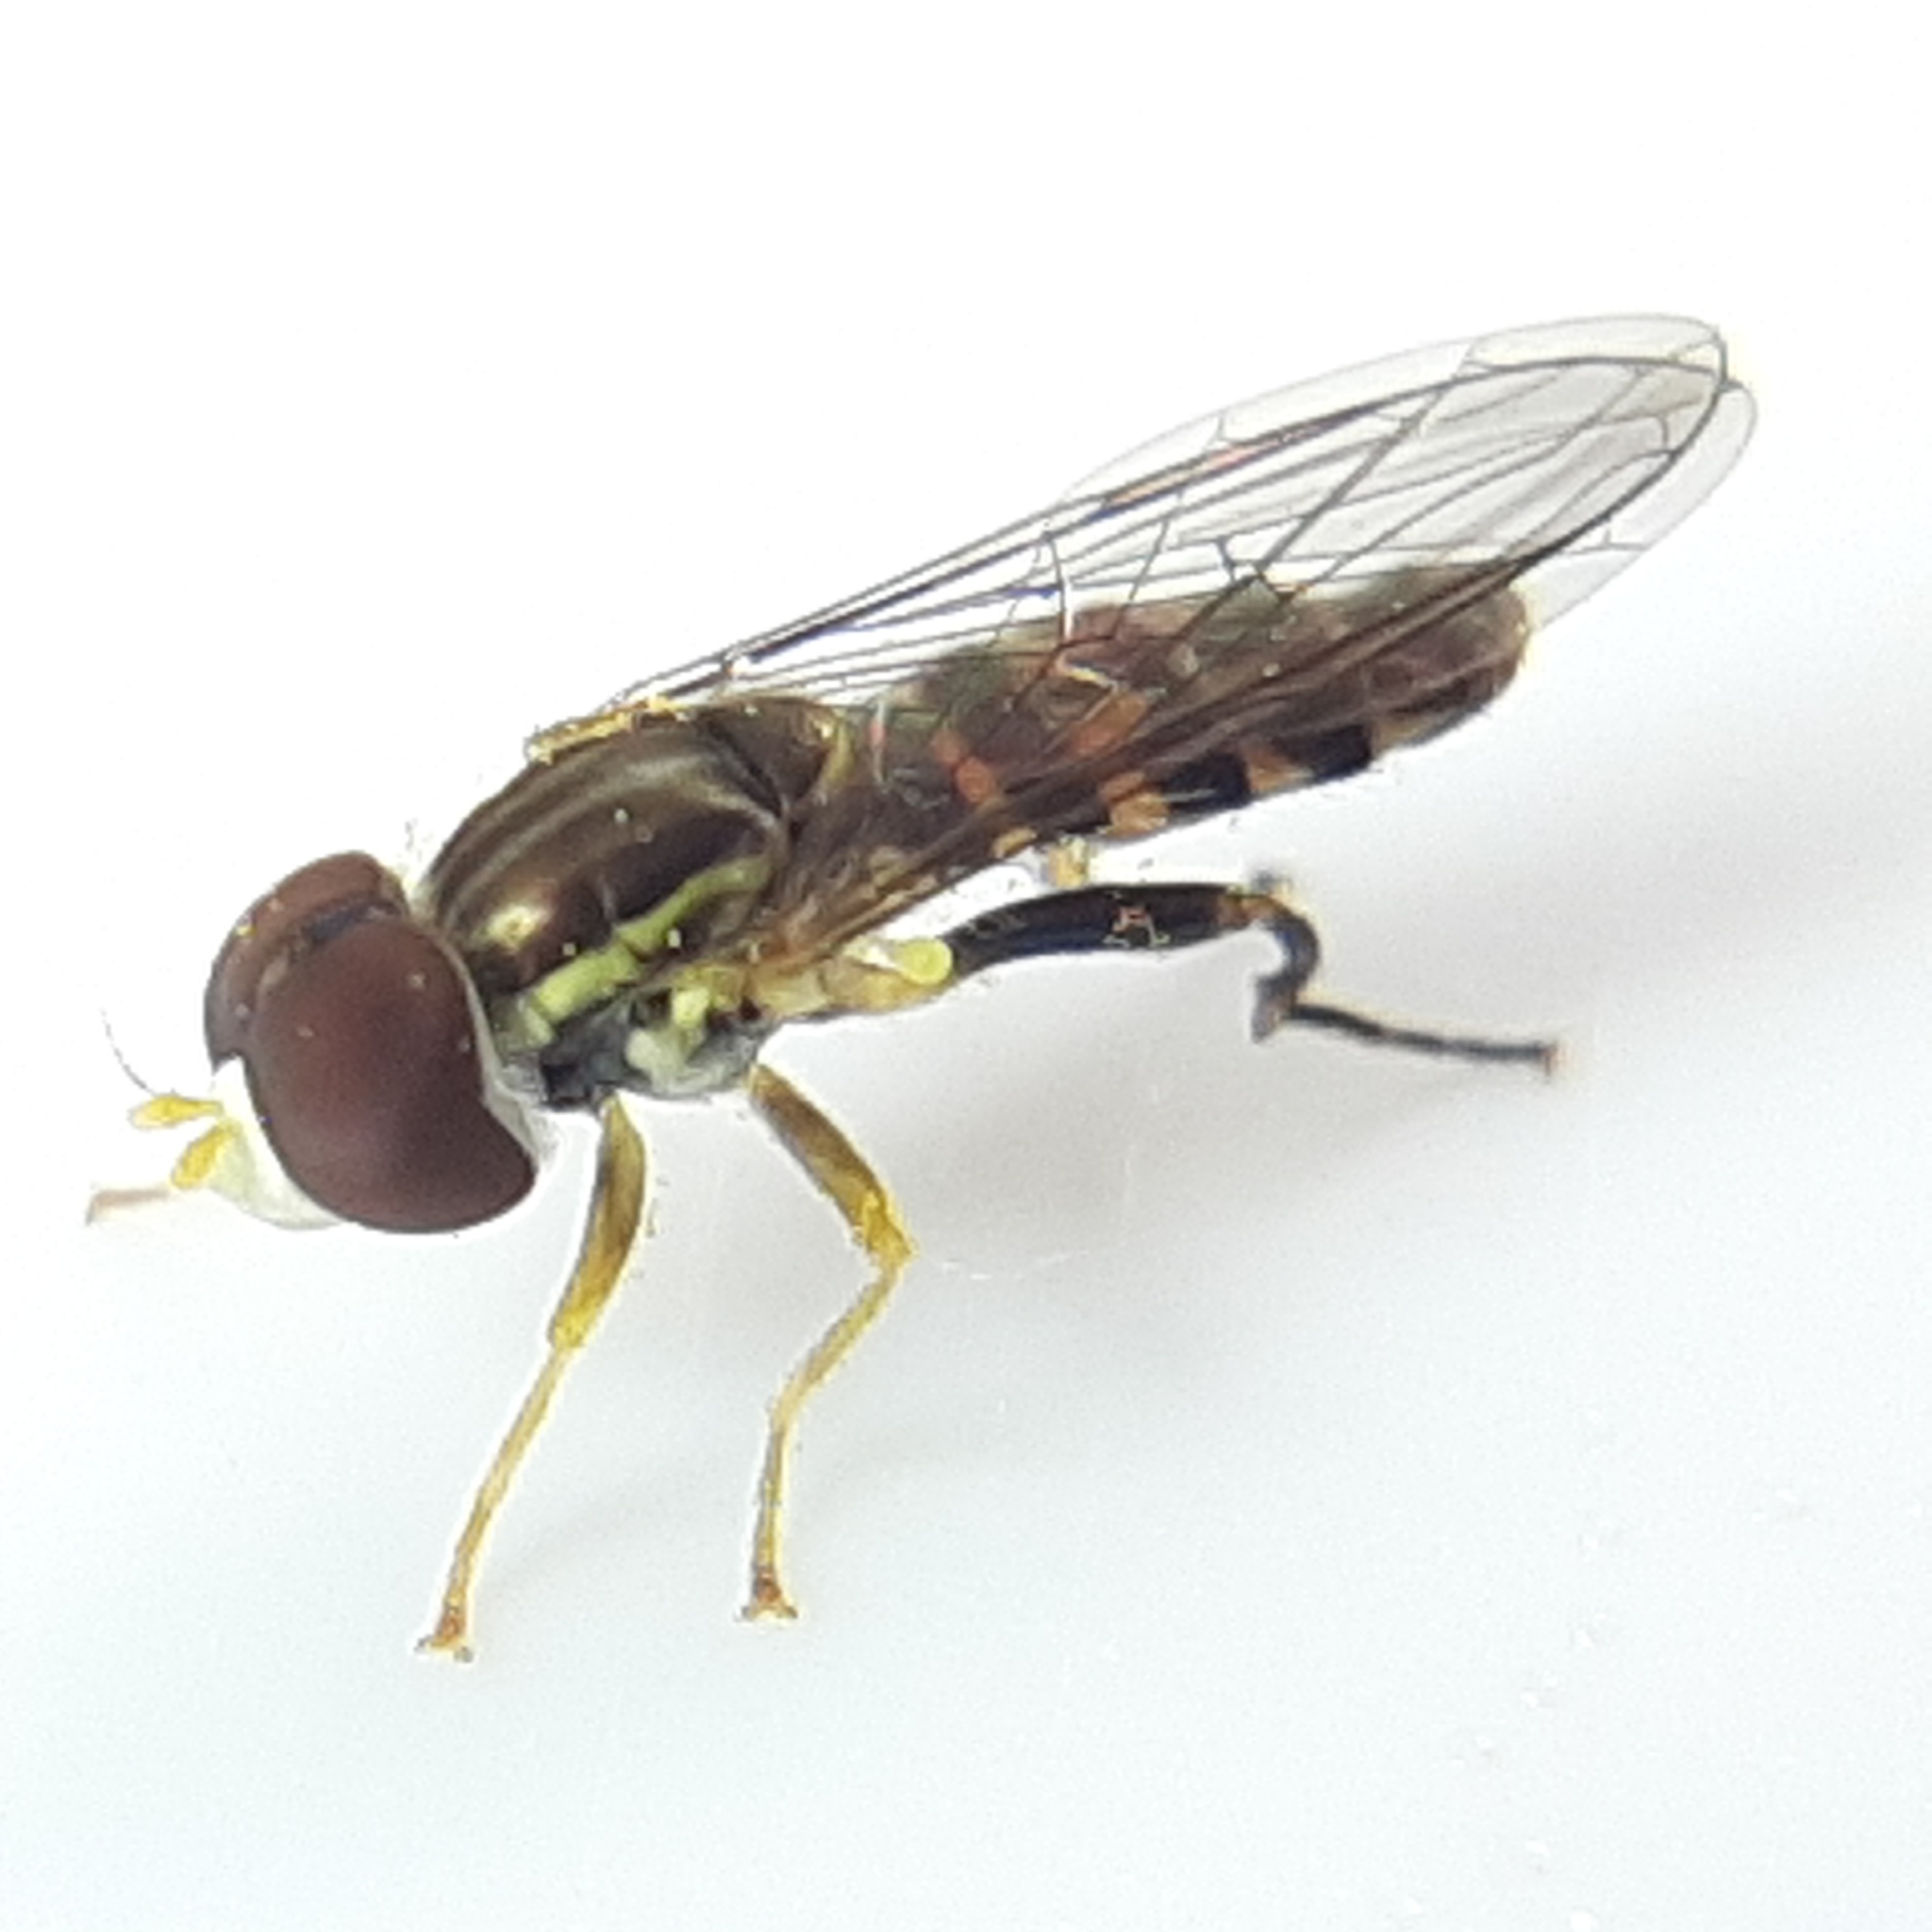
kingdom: Animalia
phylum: Arthropoda
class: Insecta
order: Diptera
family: Syrphidae
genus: Toxomerus
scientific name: Toxomerus geminatus
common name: Eastern calligrapher
